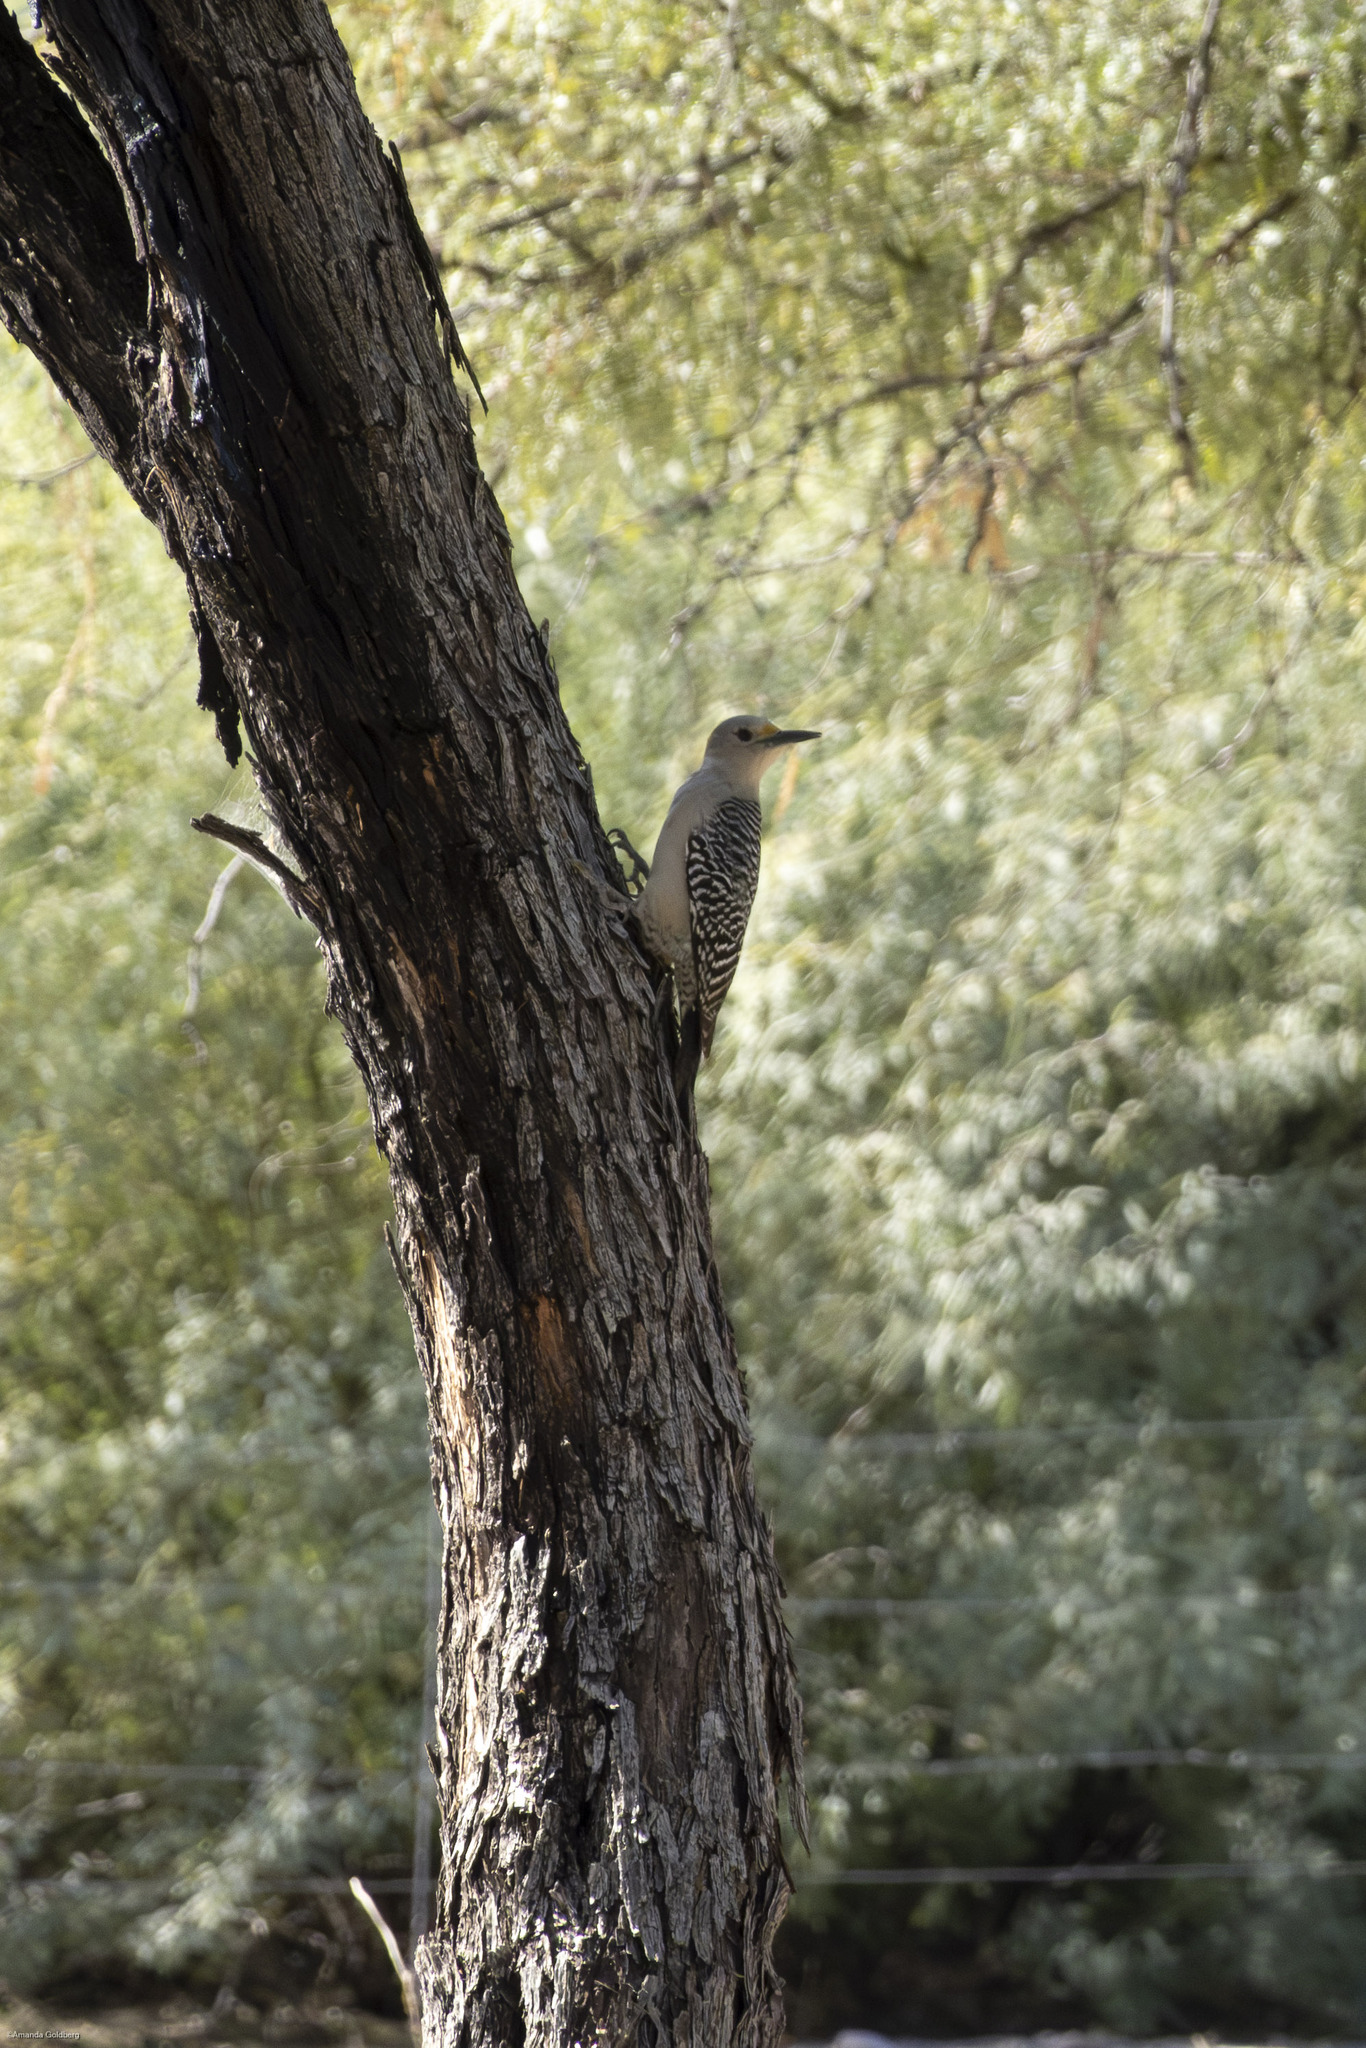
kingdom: Animalia
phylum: Chordata
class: Aves
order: Piciformes
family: Picidae
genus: Melanerpes
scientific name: Melanerpes aurifrons
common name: Golden-fronted woodpecker
